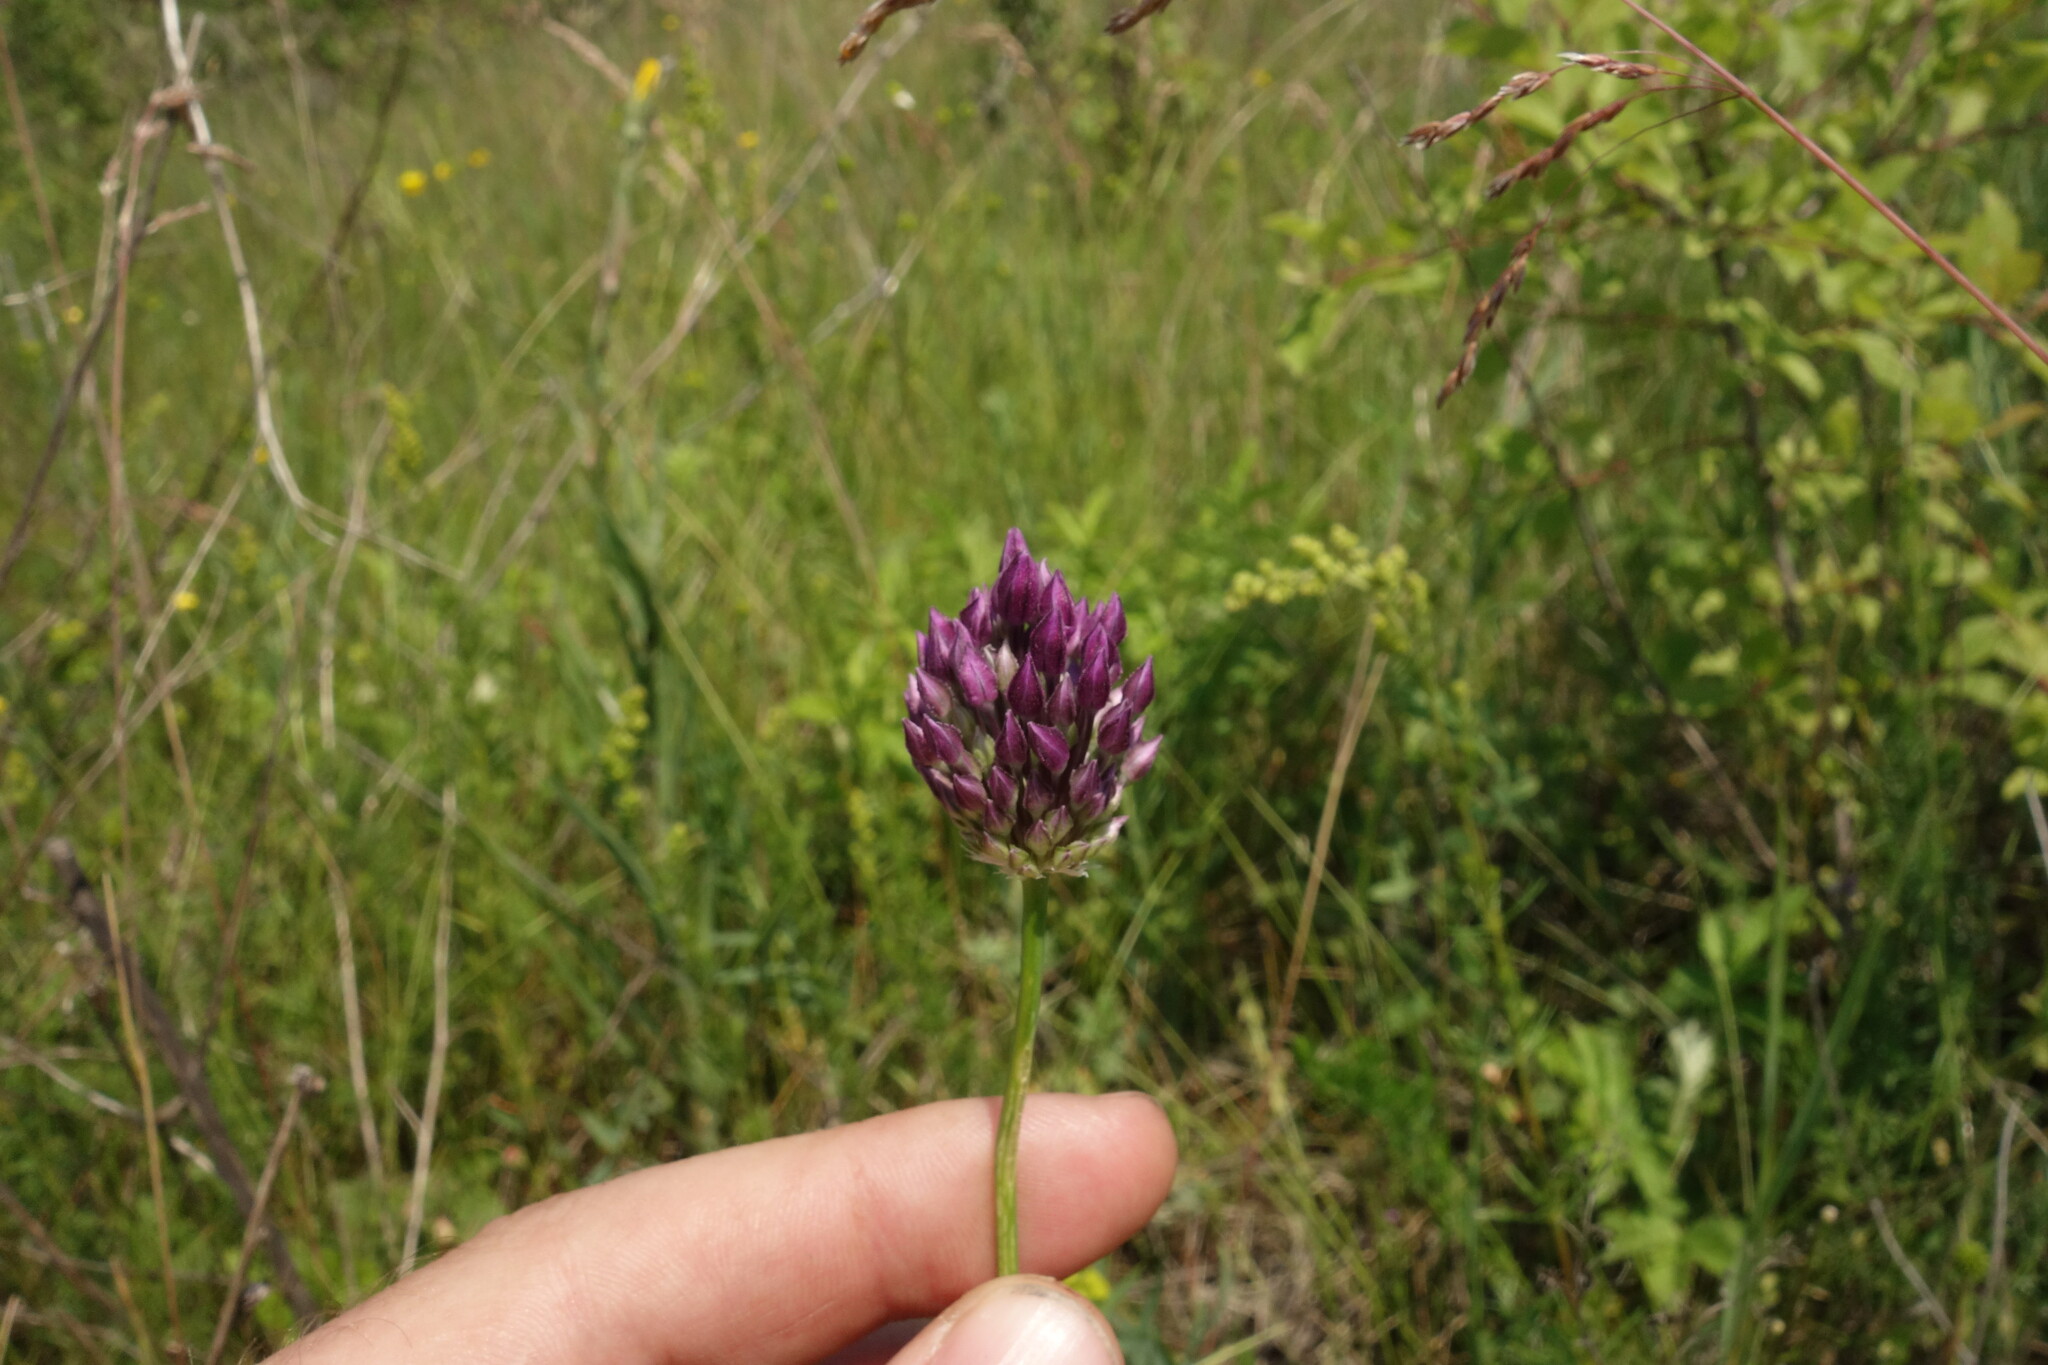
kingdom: Plantae
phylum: Tracheophyta
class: Liliopsida
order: Asparagales
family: Amaryllidaceae
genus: Allium
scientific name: Allium rotundum
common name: Sand leek
